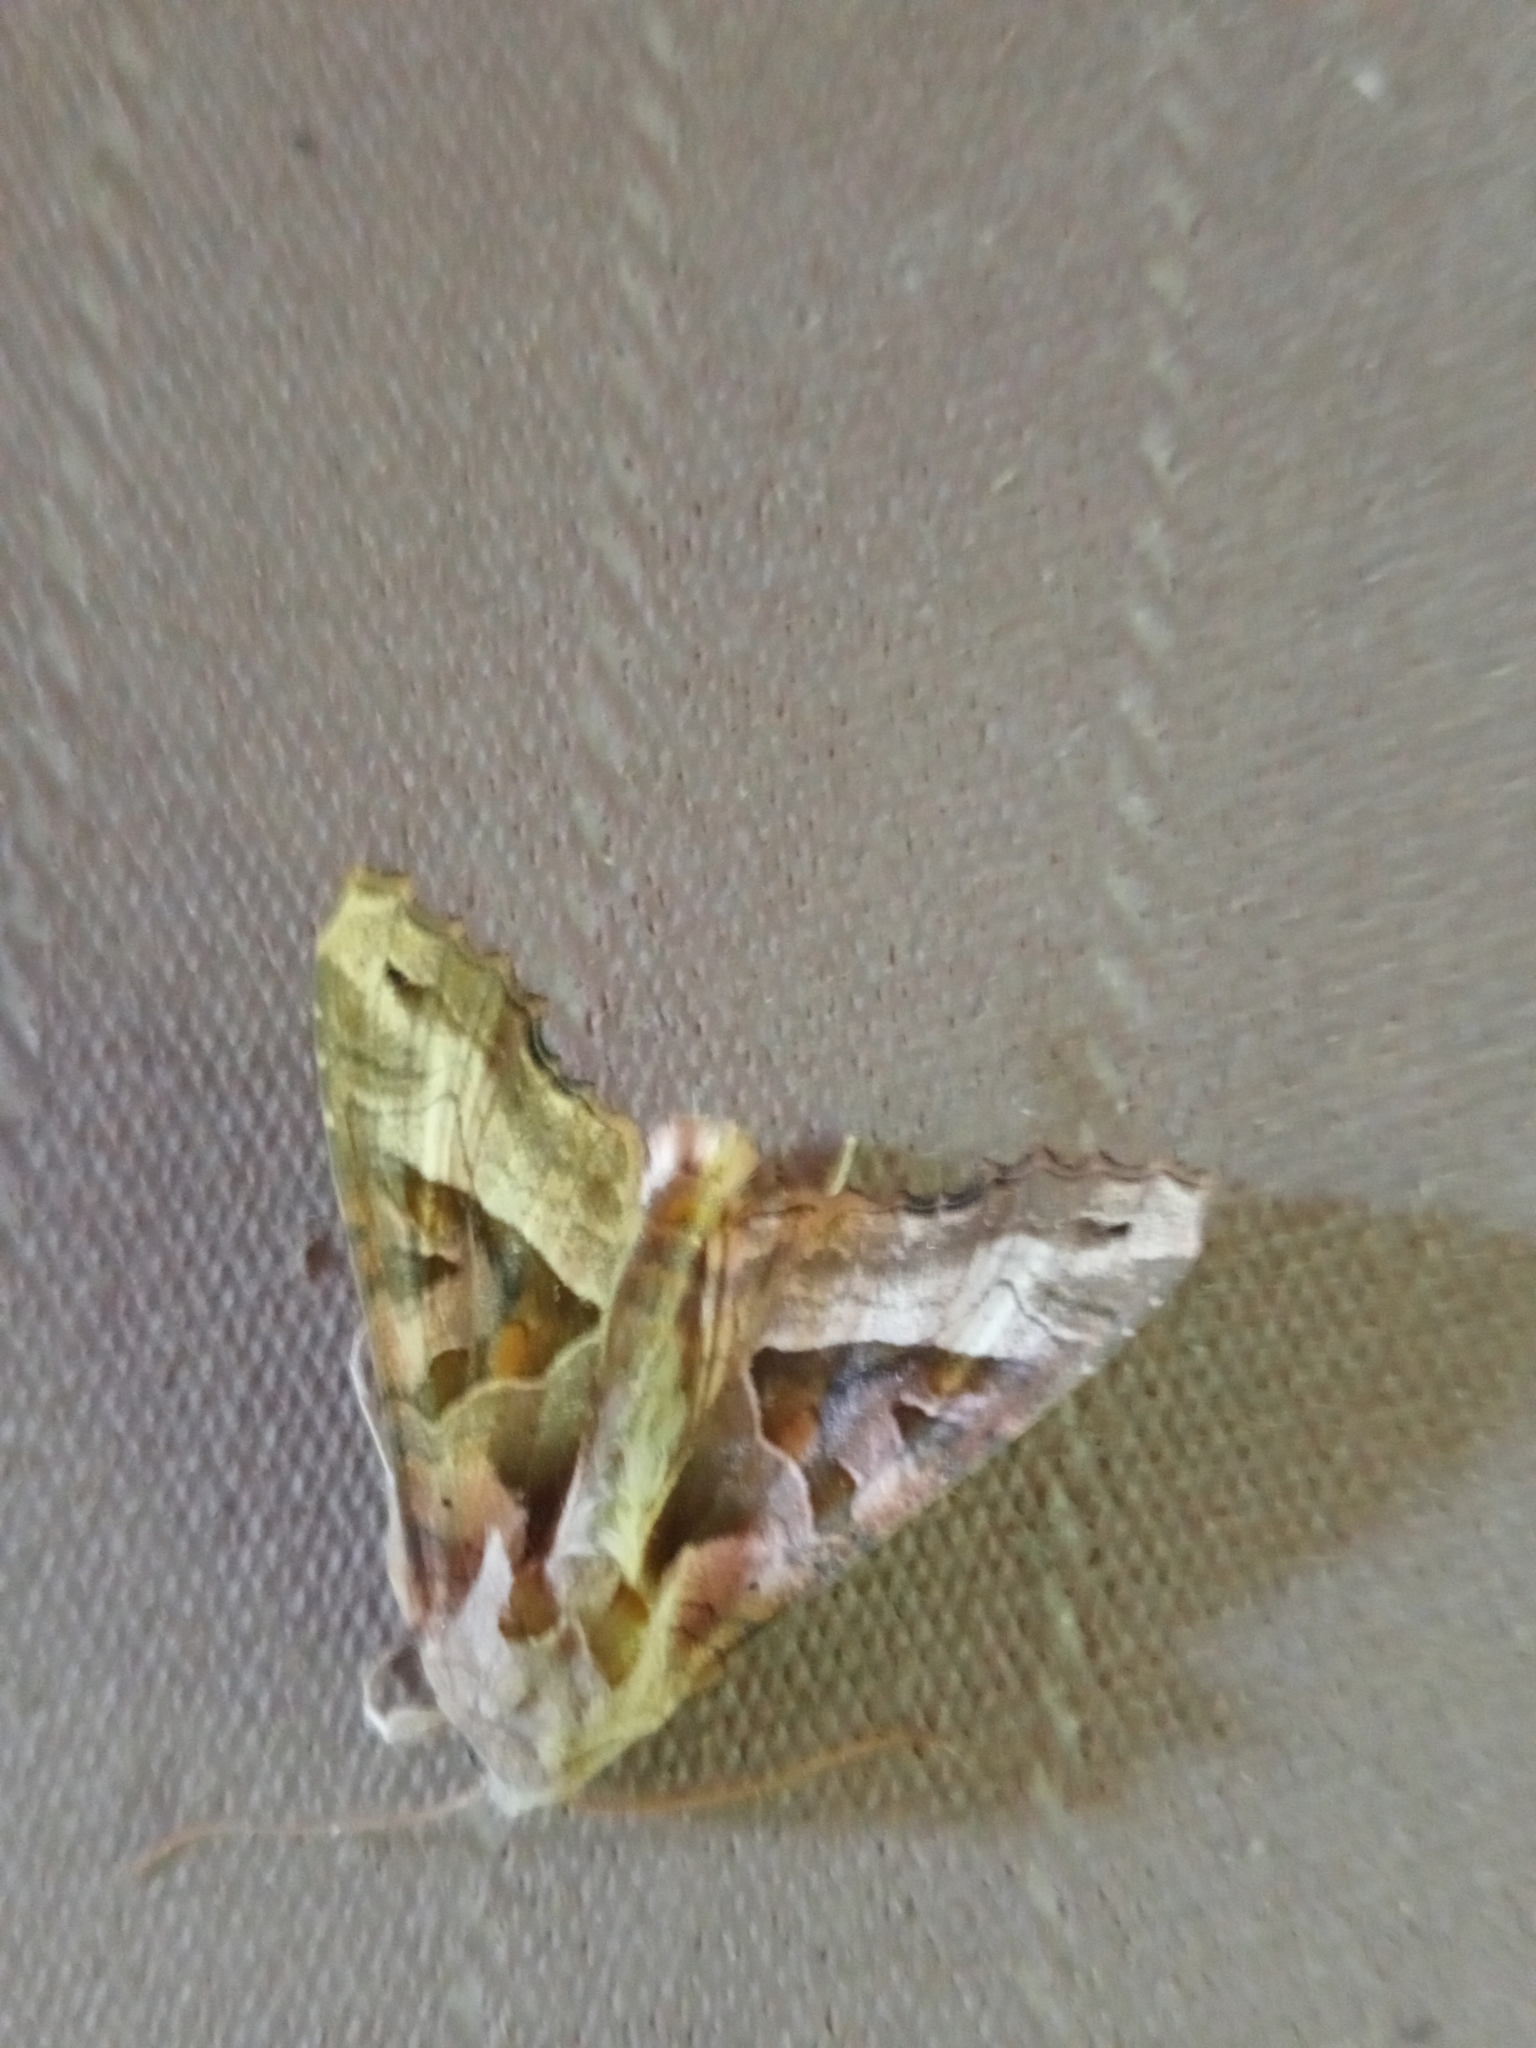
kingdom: Animalia
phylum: Arthropoda
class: Insecta
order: Lepidoptera
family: Noctuidae
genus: Phlogophora
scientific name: Phlogophora meticulosa
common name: Angle shades
